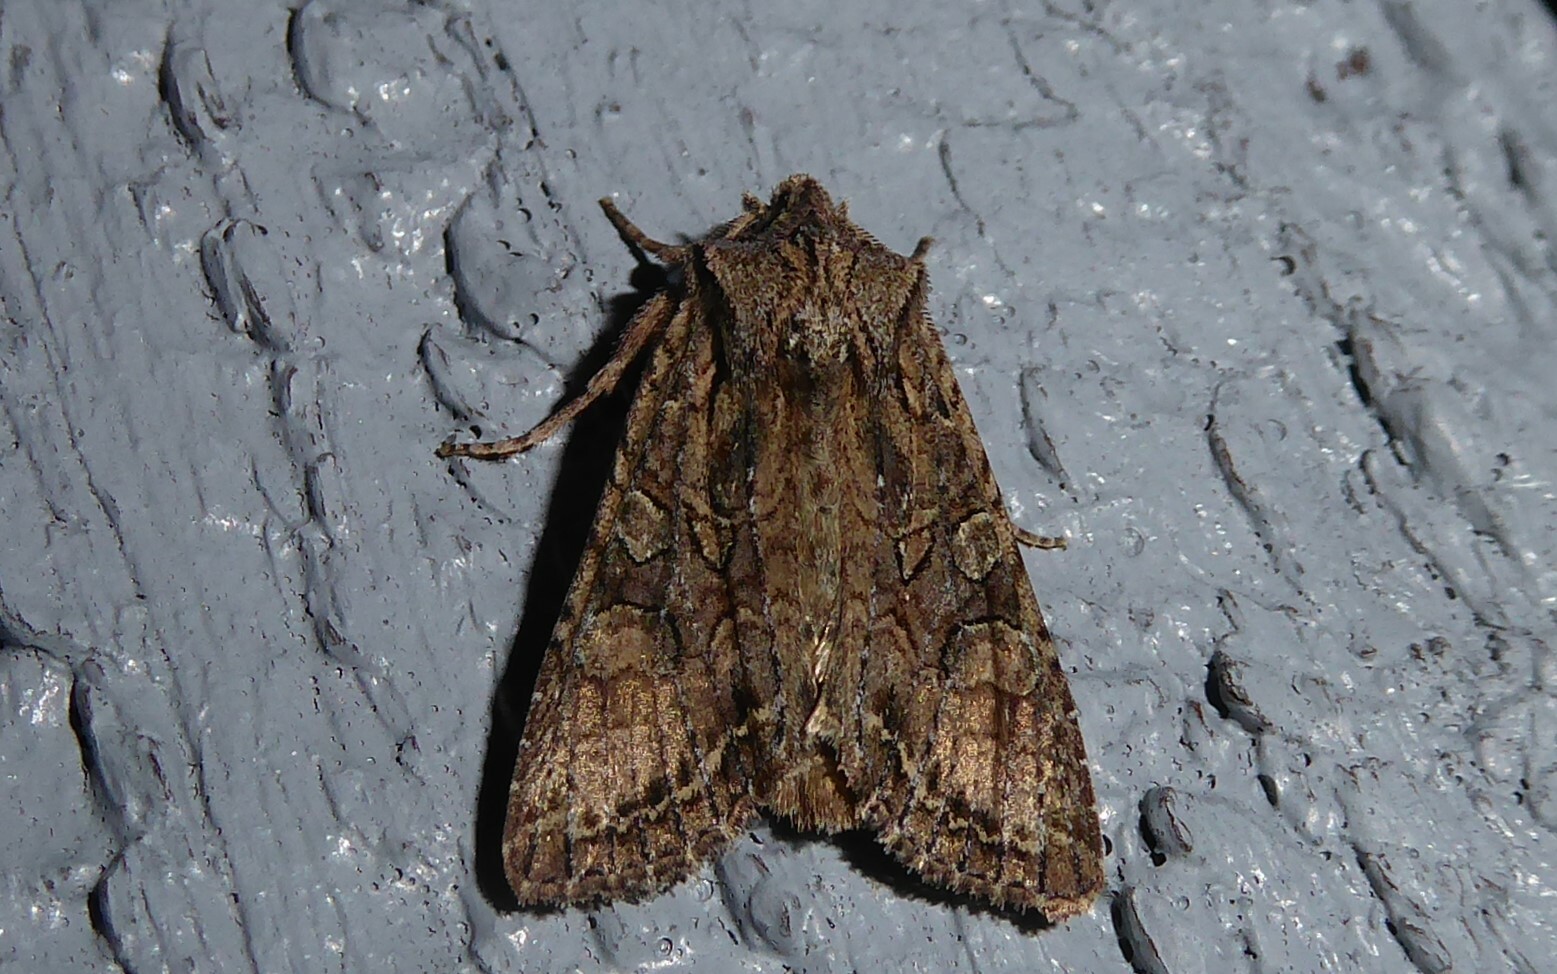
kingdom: Animalia
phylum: Arthropoda
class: Insecta
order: Lepidoptera
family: Noctuidae
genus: Ichneutica
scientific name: Ichneutica
